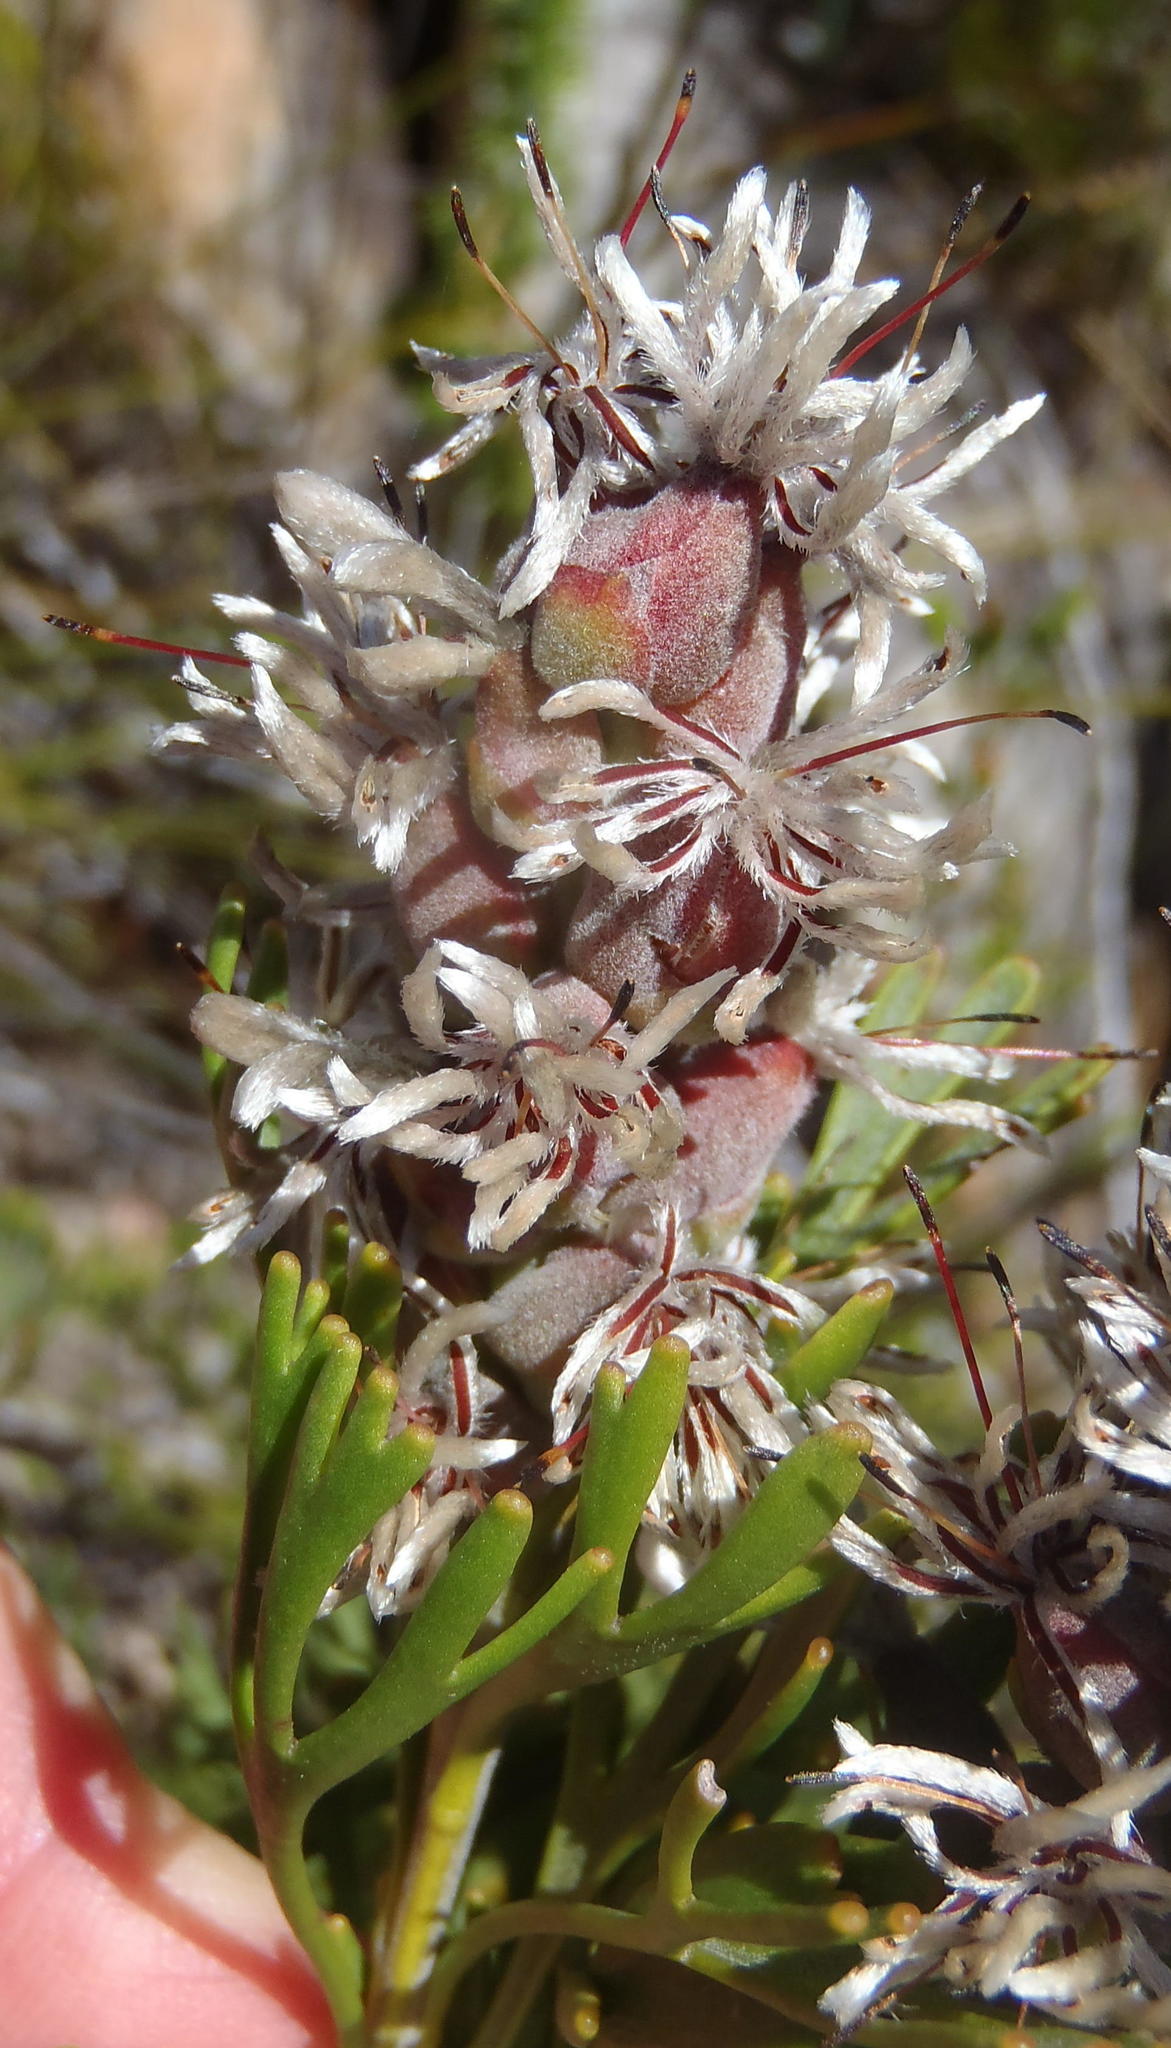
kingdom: Plantae
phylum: Tracheophyta
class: Magnoliopsida
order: Proteales
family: Proteaceae
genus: Paranomus
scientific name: Paranomus dregei
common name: Scented sceptre
